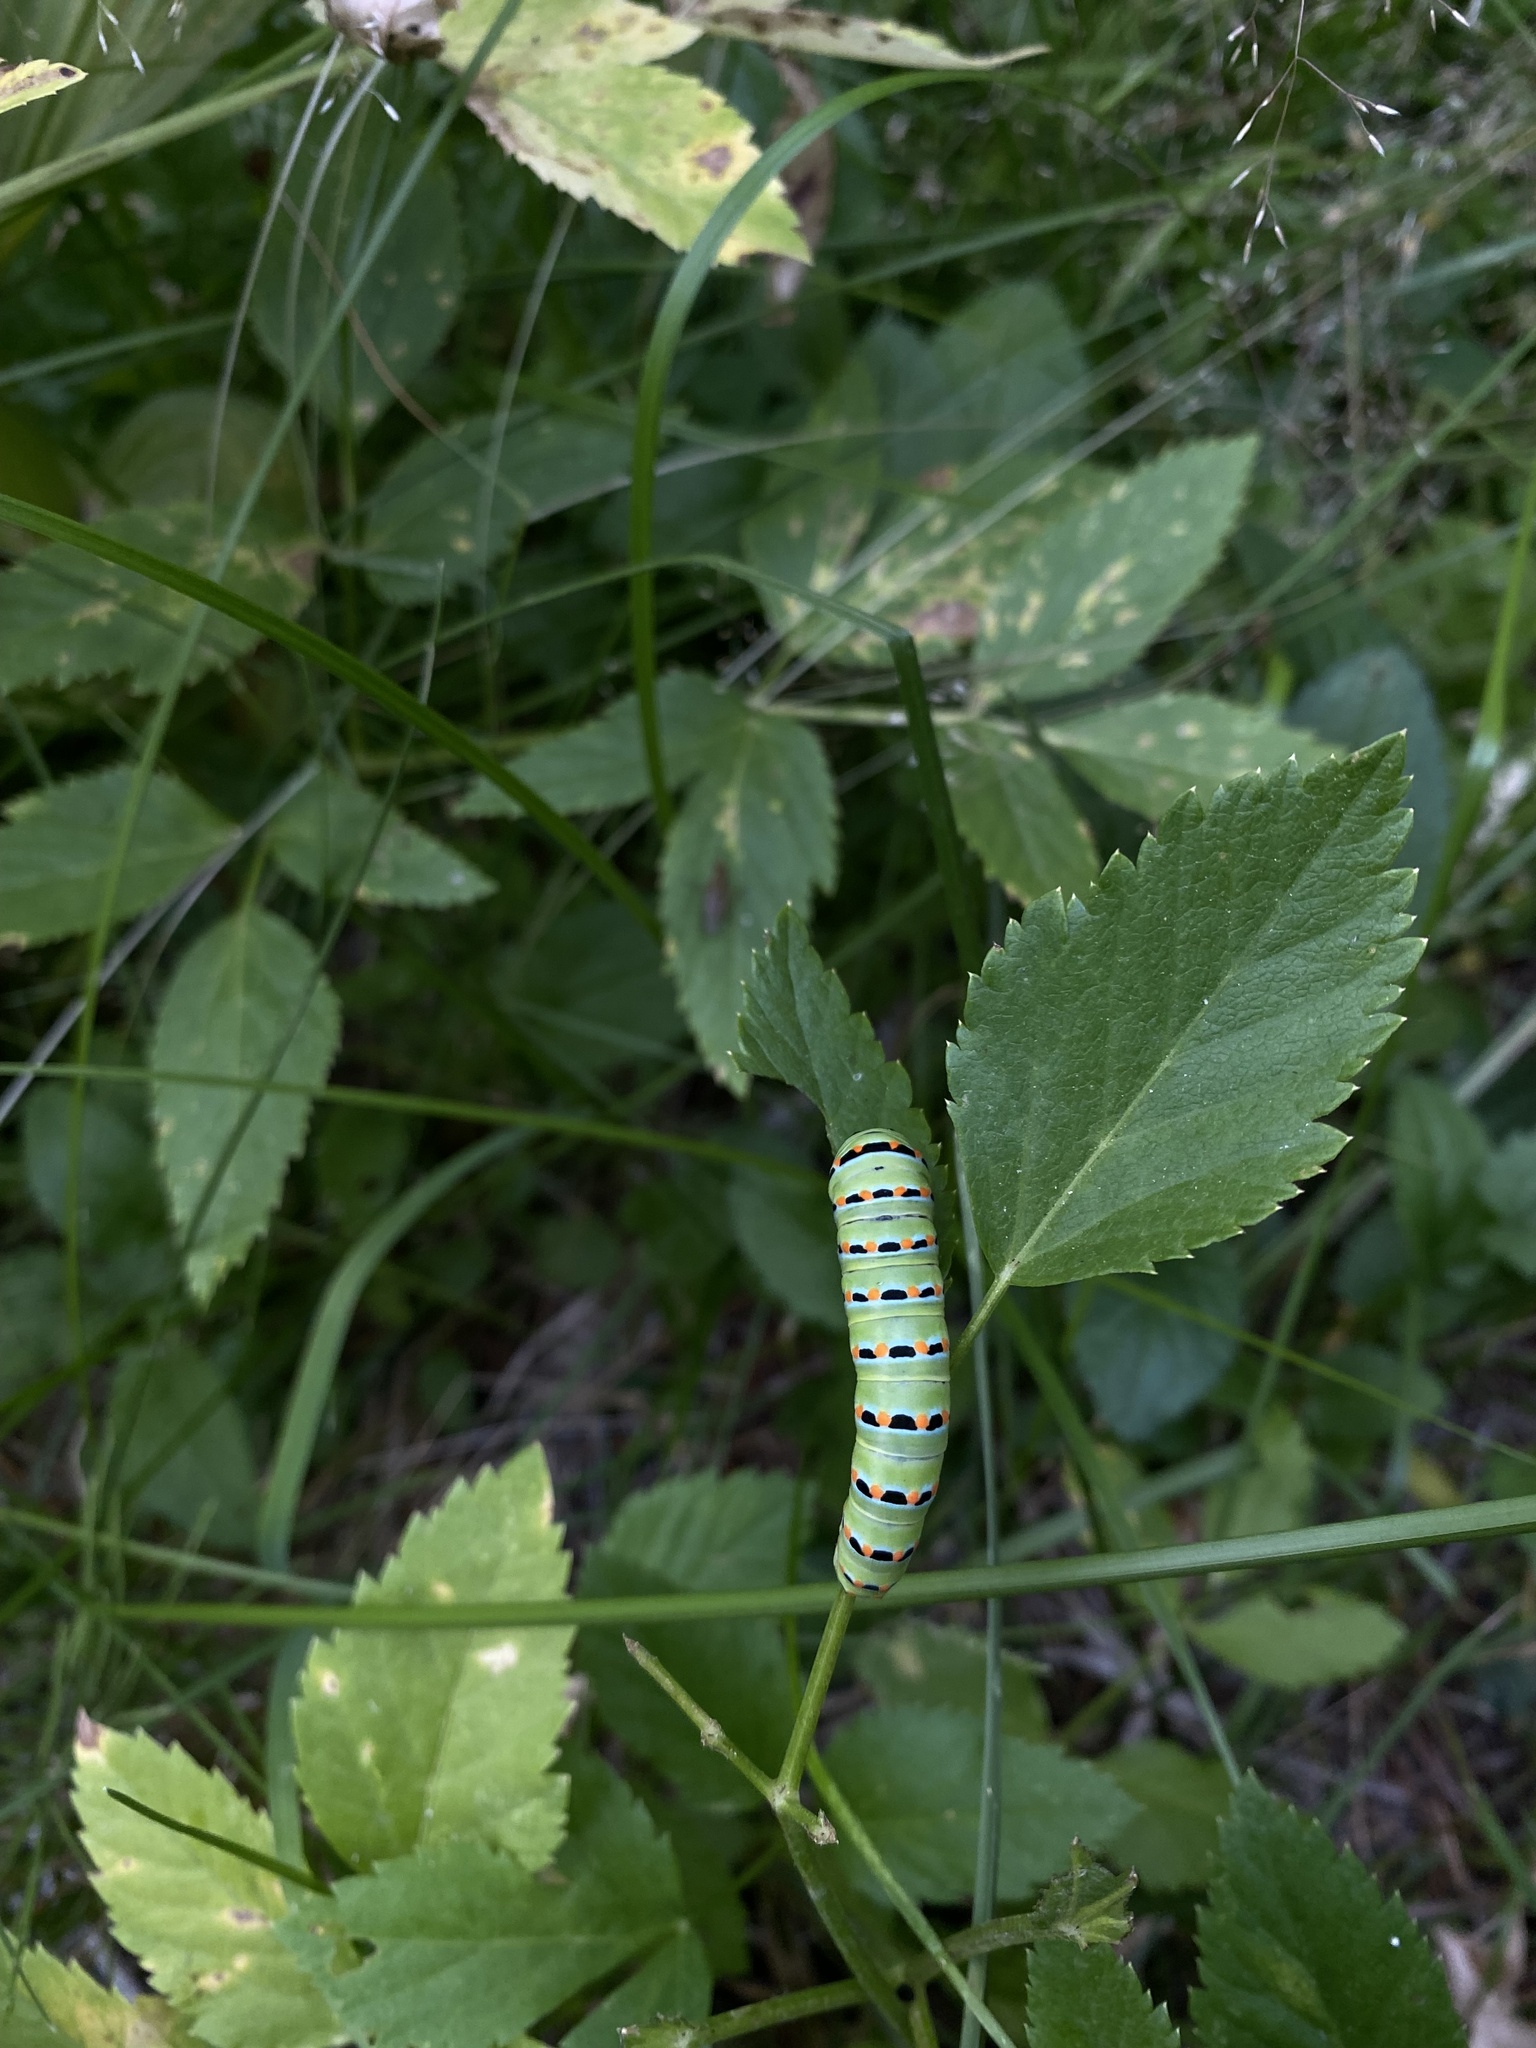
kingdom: Animalia
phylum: Arthropoda
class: Insecta
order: Lepidoptera
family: Papilionidae
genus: Papilio
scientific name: Papilio zelicaon
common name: Anise swallowtail
